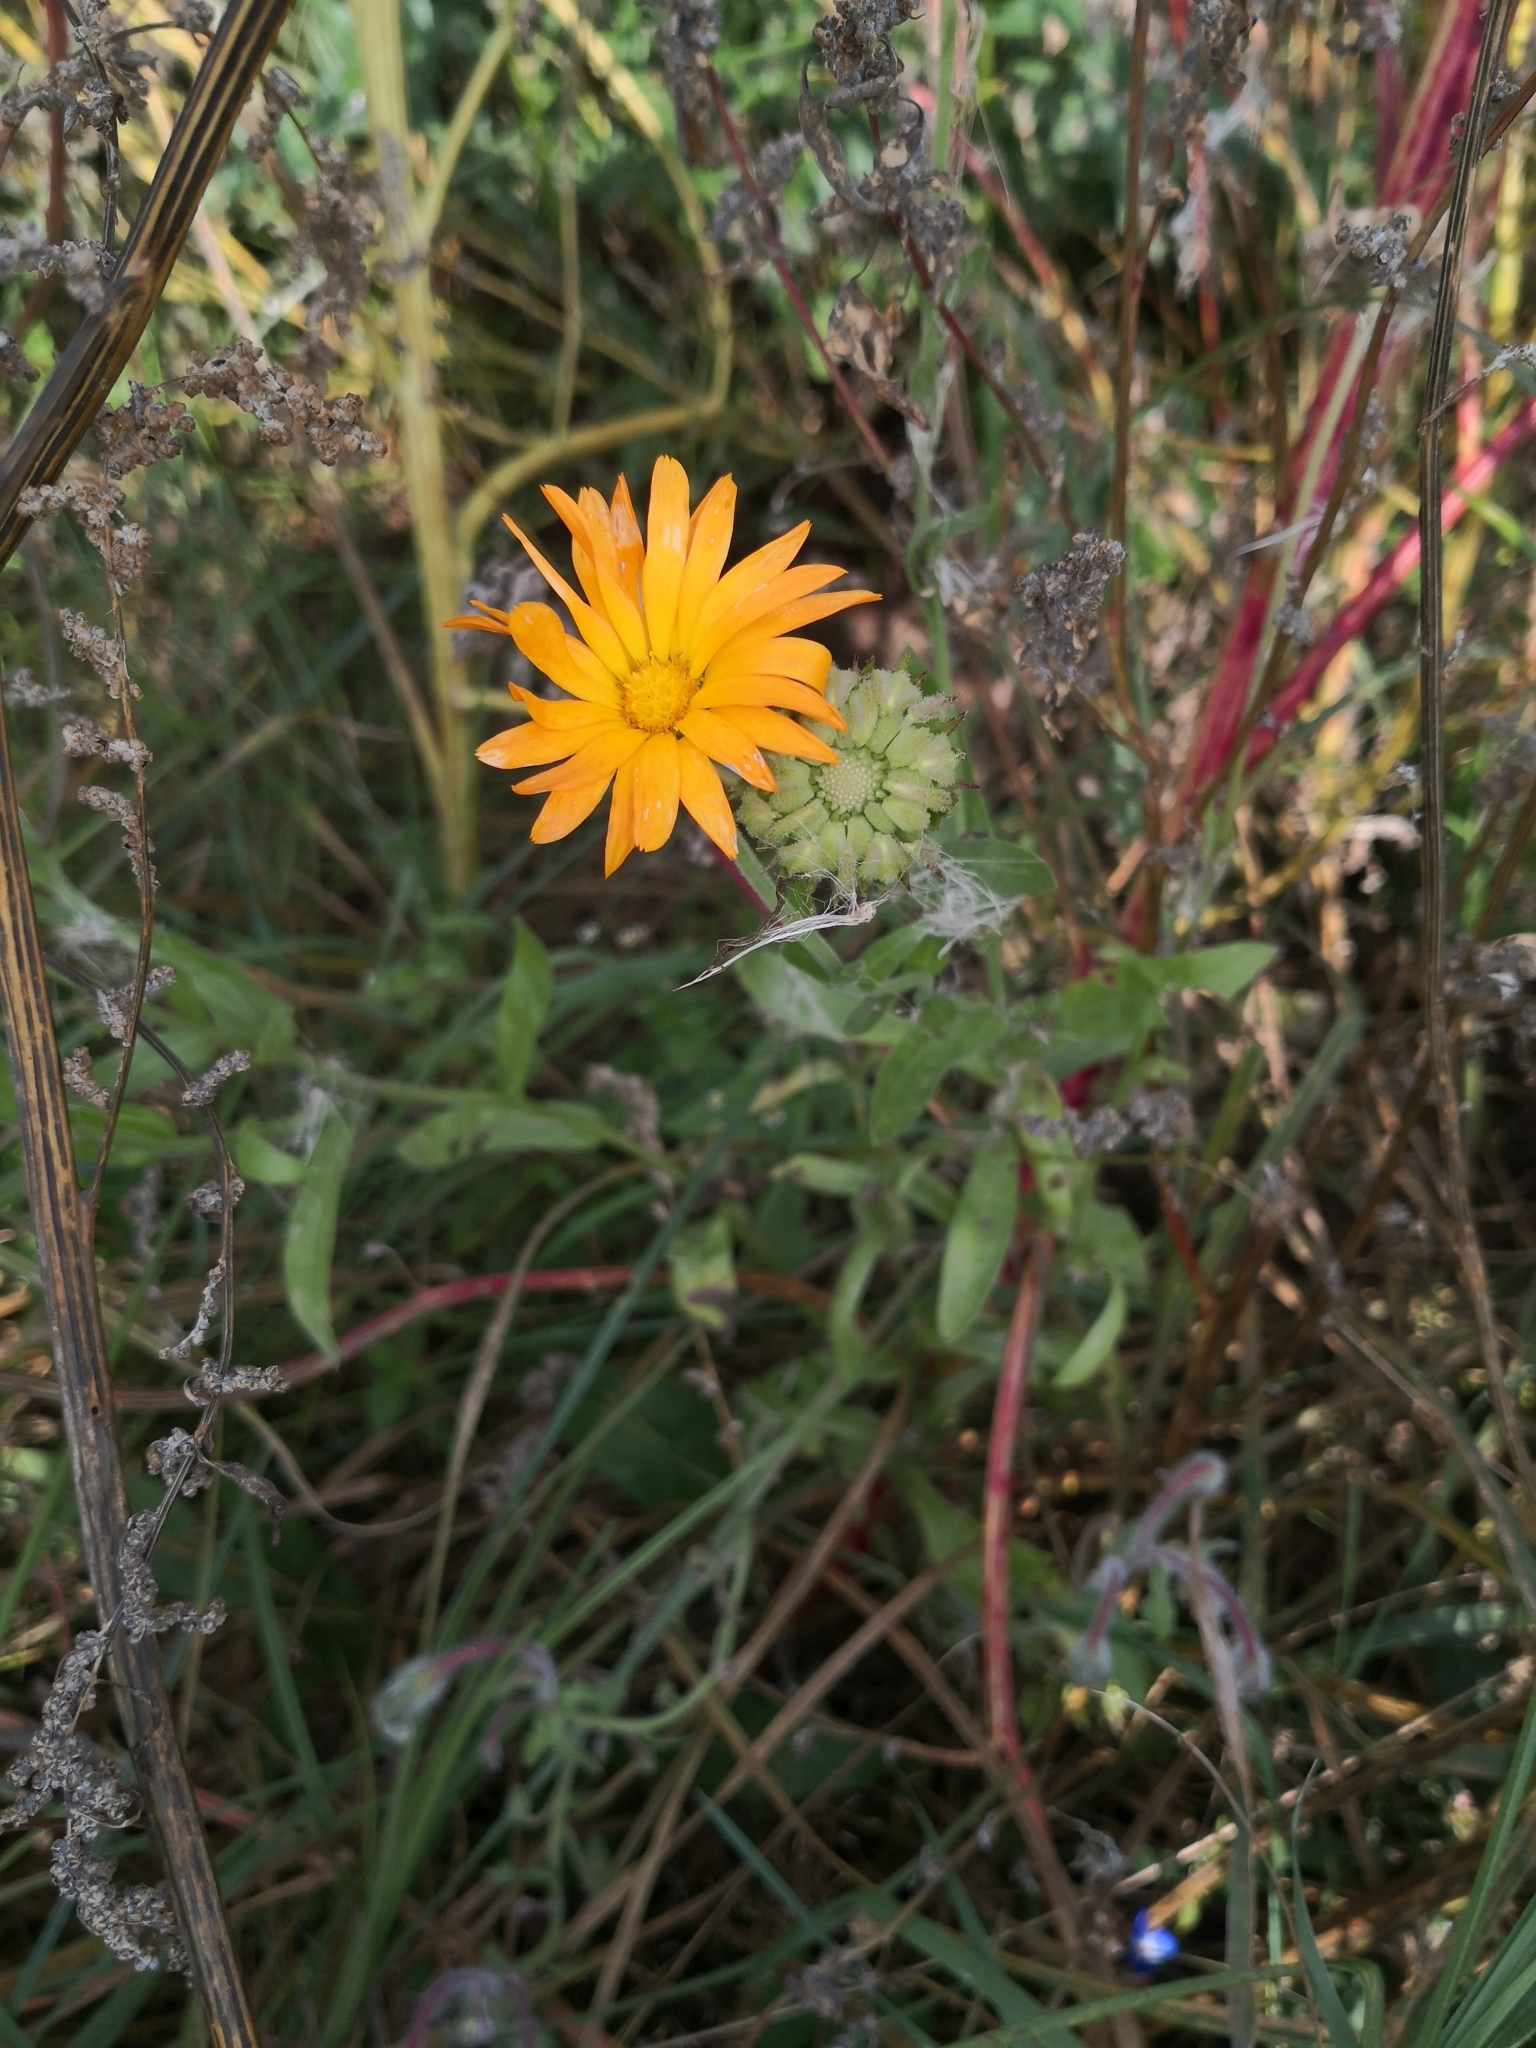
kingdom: Plantae
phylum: Tracheophyta
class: Magnoliopsida
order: Asterales
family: Asteraceae
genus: Calendula
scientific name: Calendula officinalis
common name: Pot marigold
